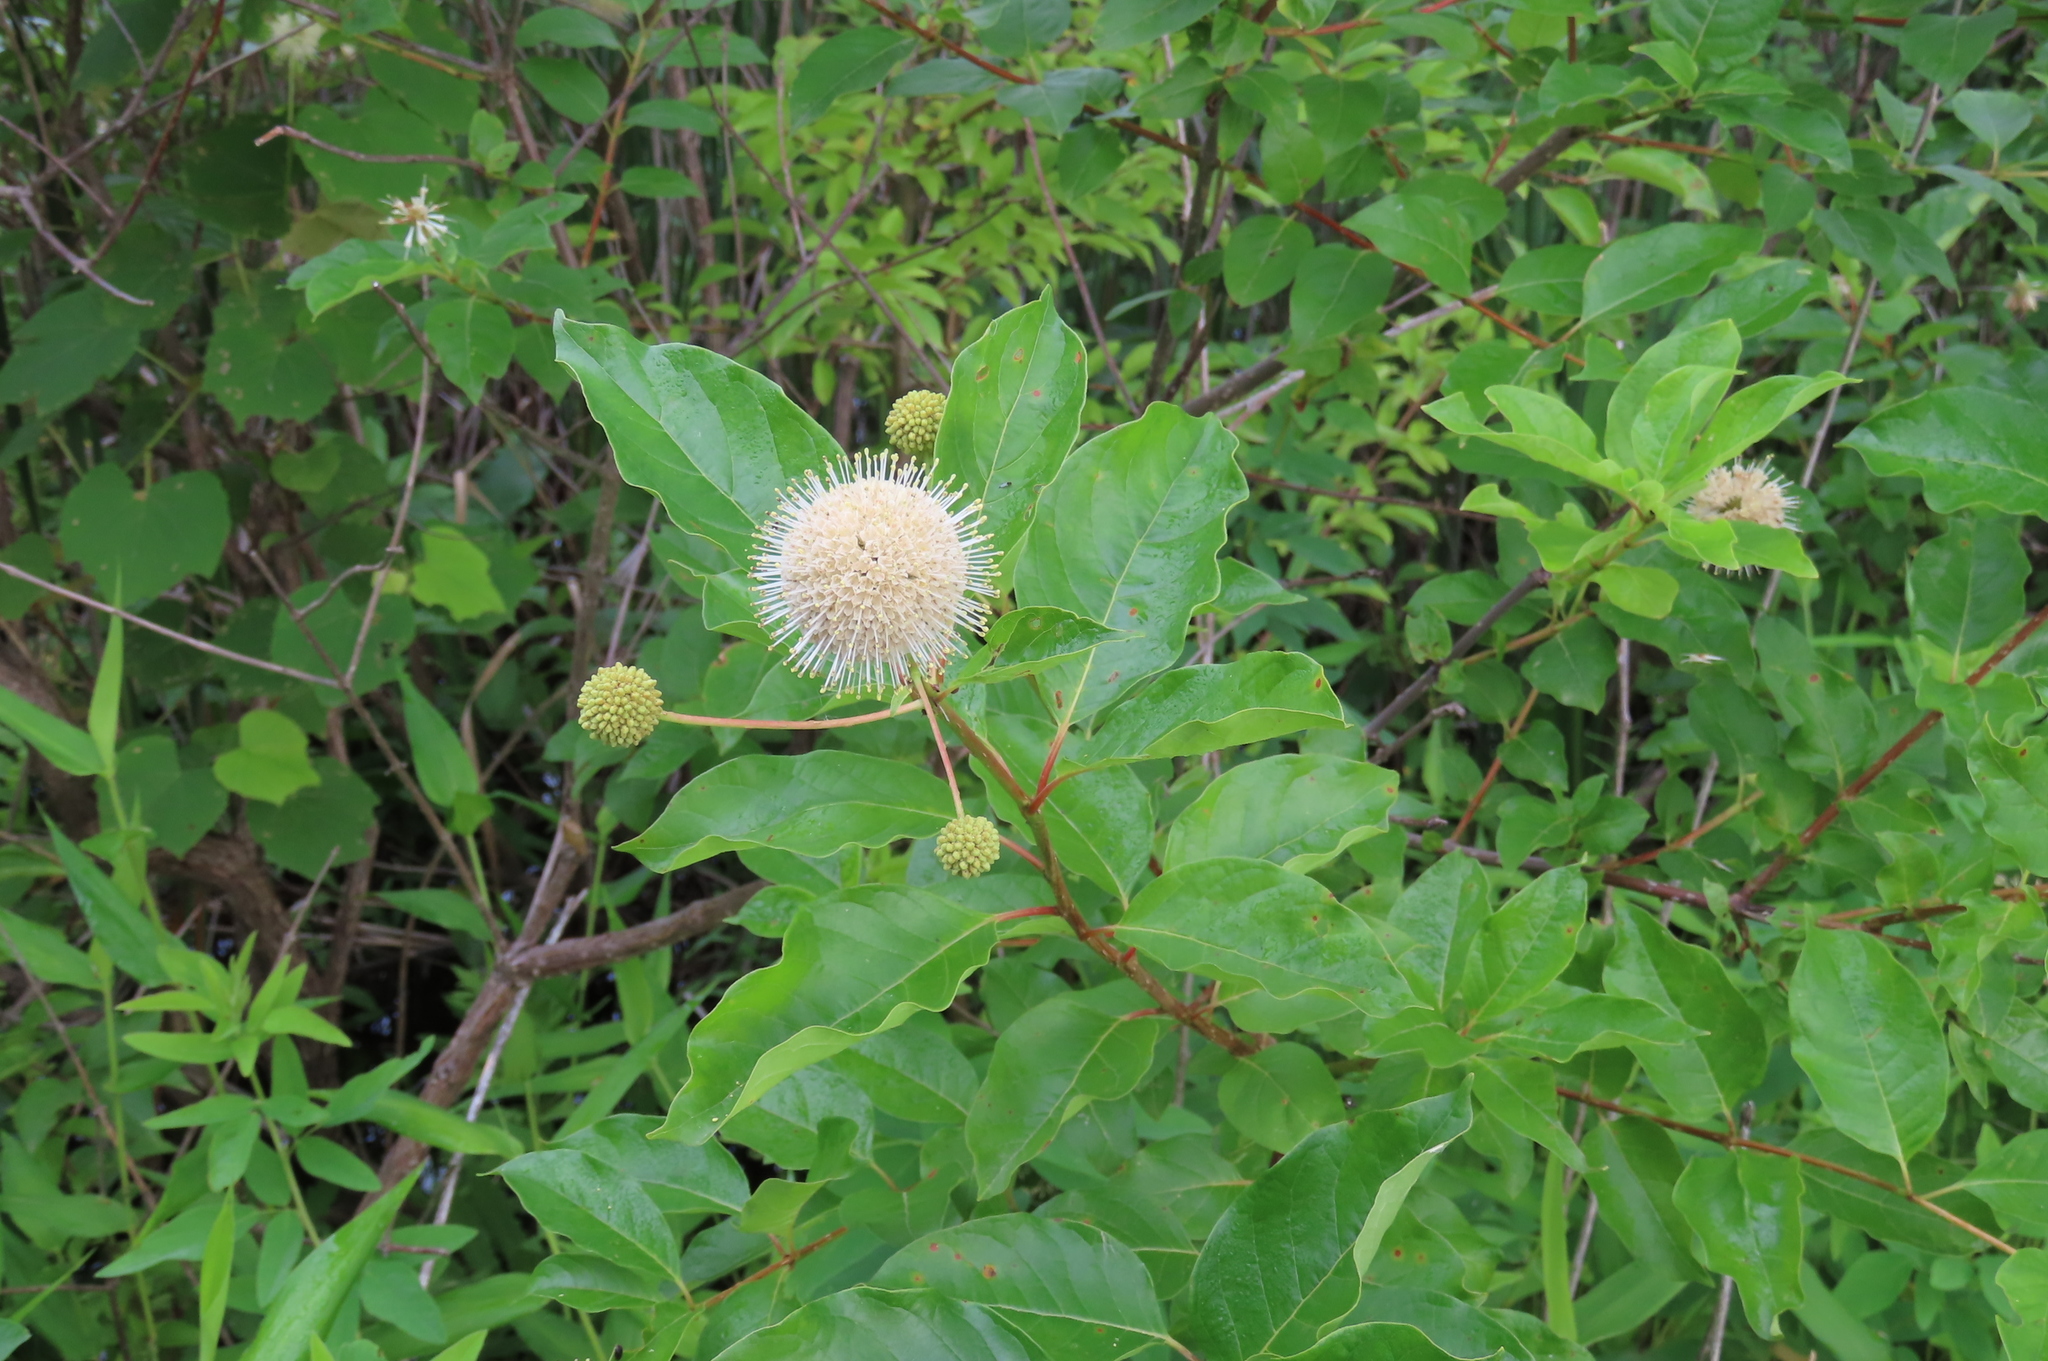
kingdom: Plantae
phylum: Tracheophyta
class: Magnoliopsida
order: Gentianales
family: Rubiaceae
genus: Cephalanthus
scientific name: Cephalanthus occidentalis
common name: Button-willow
